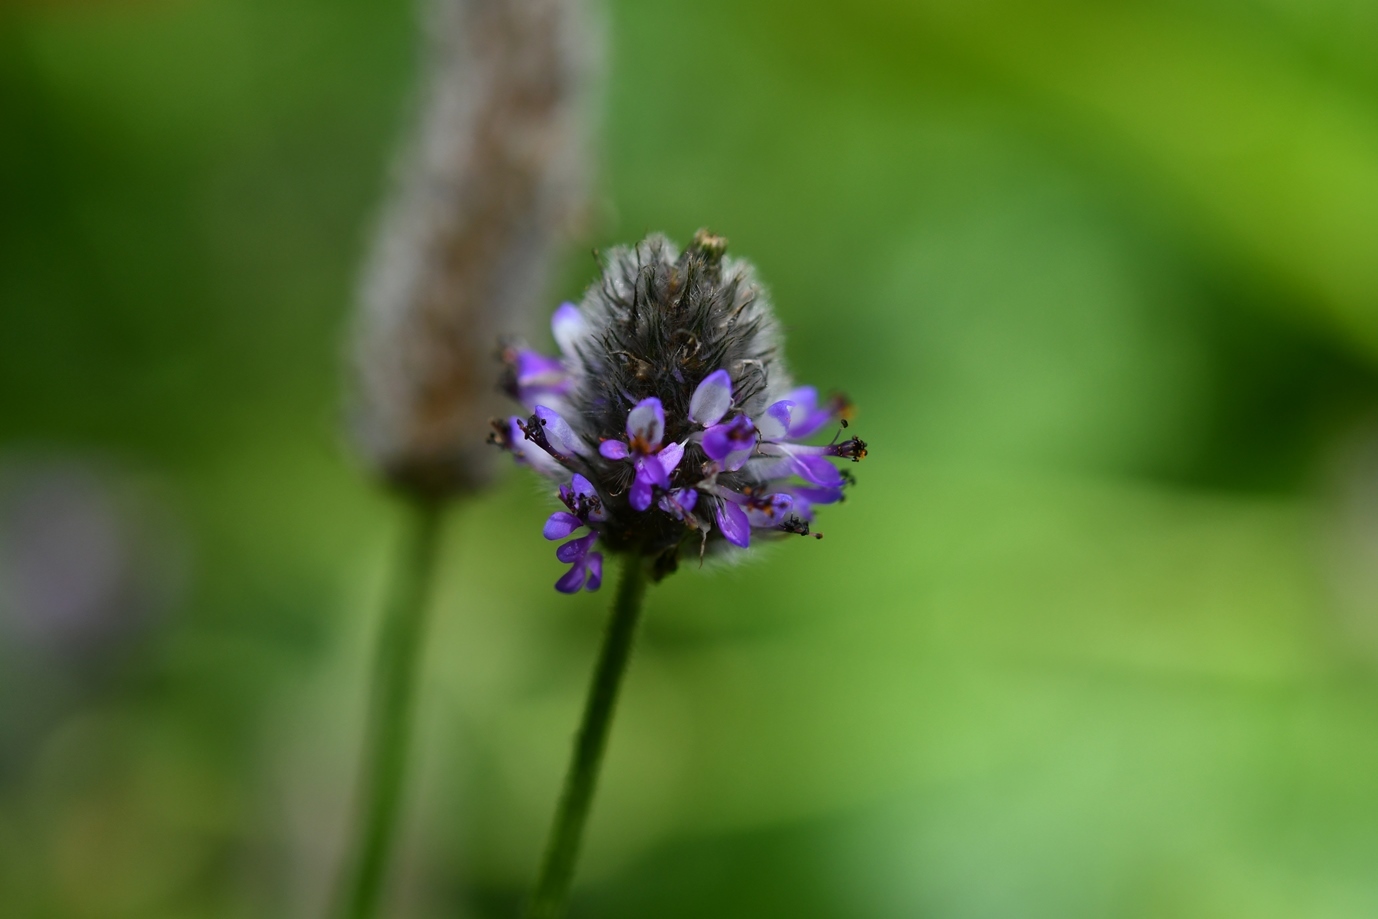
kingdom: Plantae
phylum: Tracheophyta
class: Magnoliopsida
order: Fabales
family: Fabaceae
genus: Dalea
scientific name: Dalea leporina
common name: Foxtail dalea
